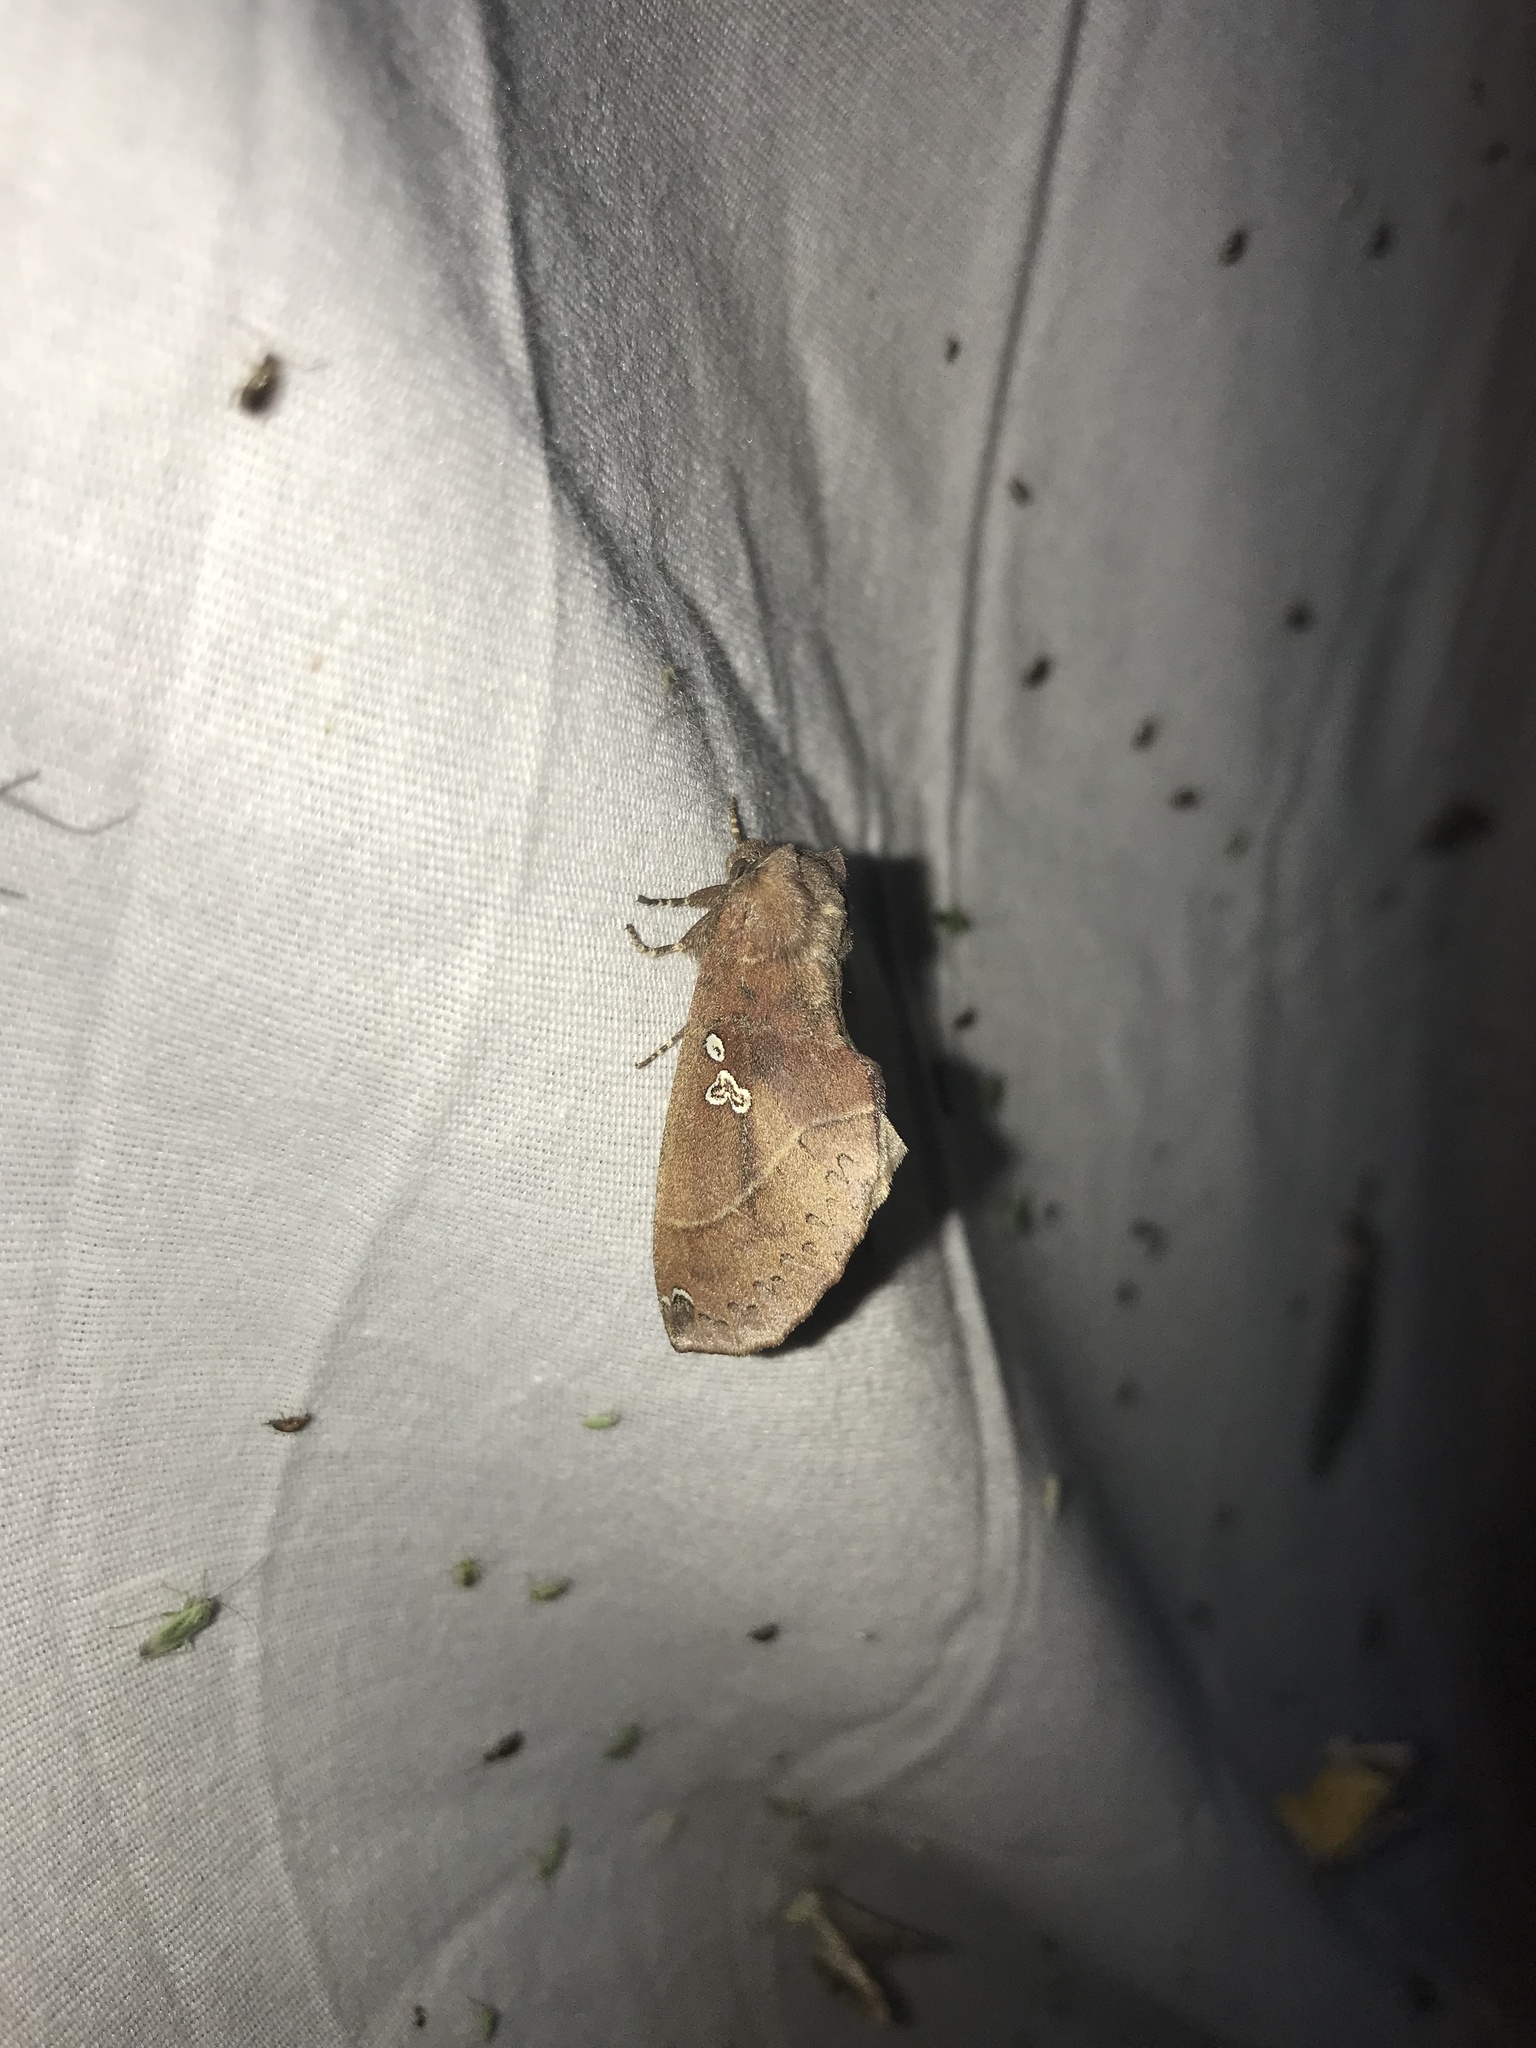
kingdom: Animalia
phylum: Arthropoda
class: Insecta
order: Lepidoptera
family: Notodontidae
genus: Pseudhapigia
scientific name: Pseudhapigia brunnea
